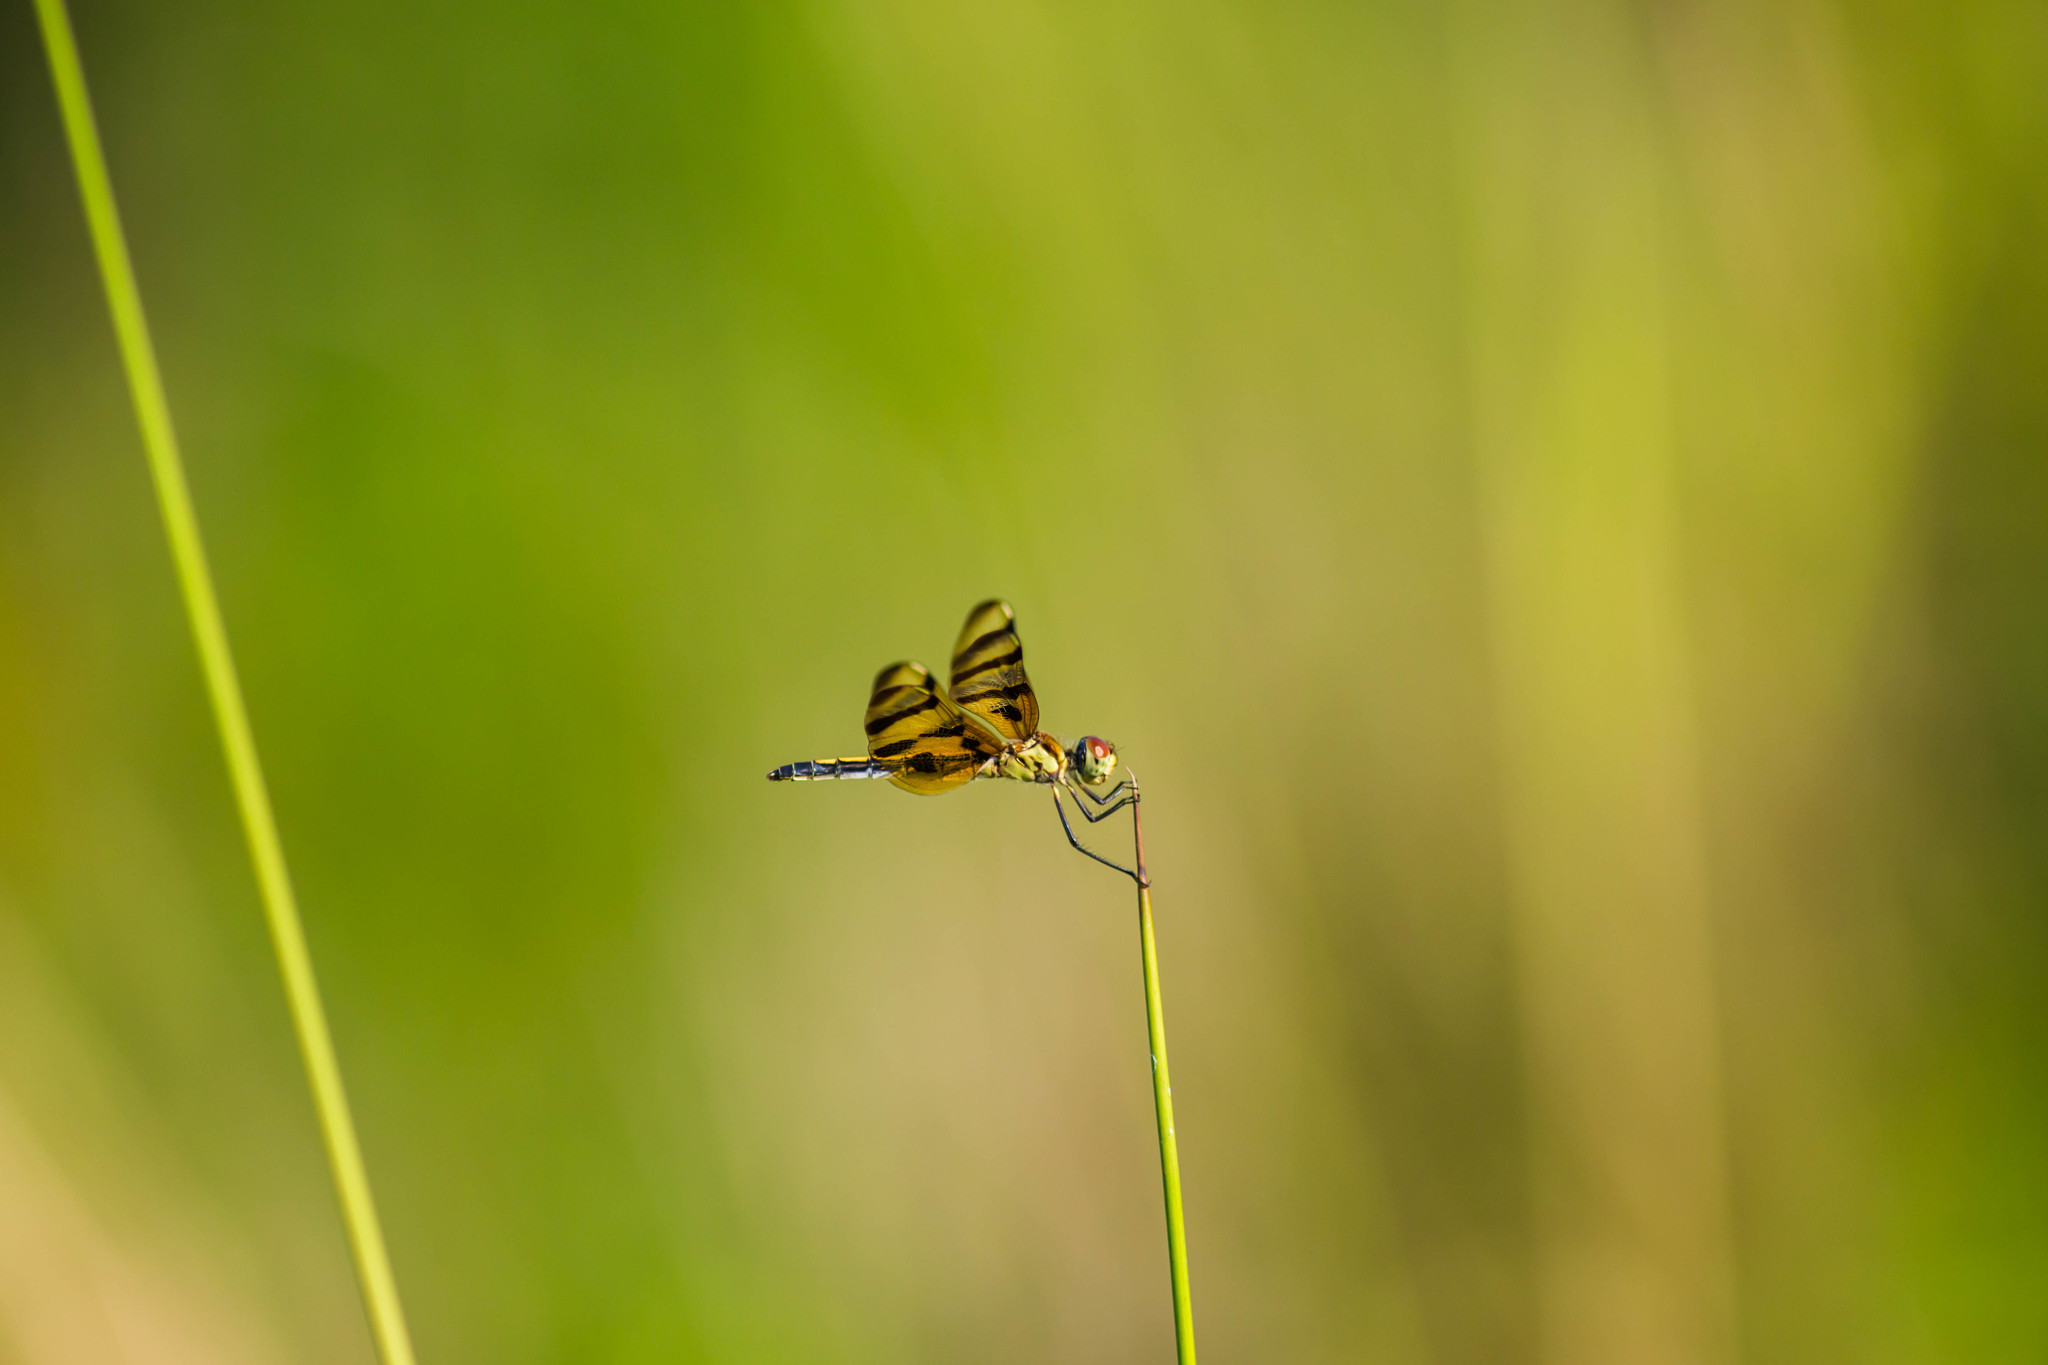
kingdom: Animalia
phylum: Arthropoda
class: Insecta
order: Odonata
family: Libellulidae
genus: Celithemis
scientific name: Celithemis eponina
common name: Halloween pennant
